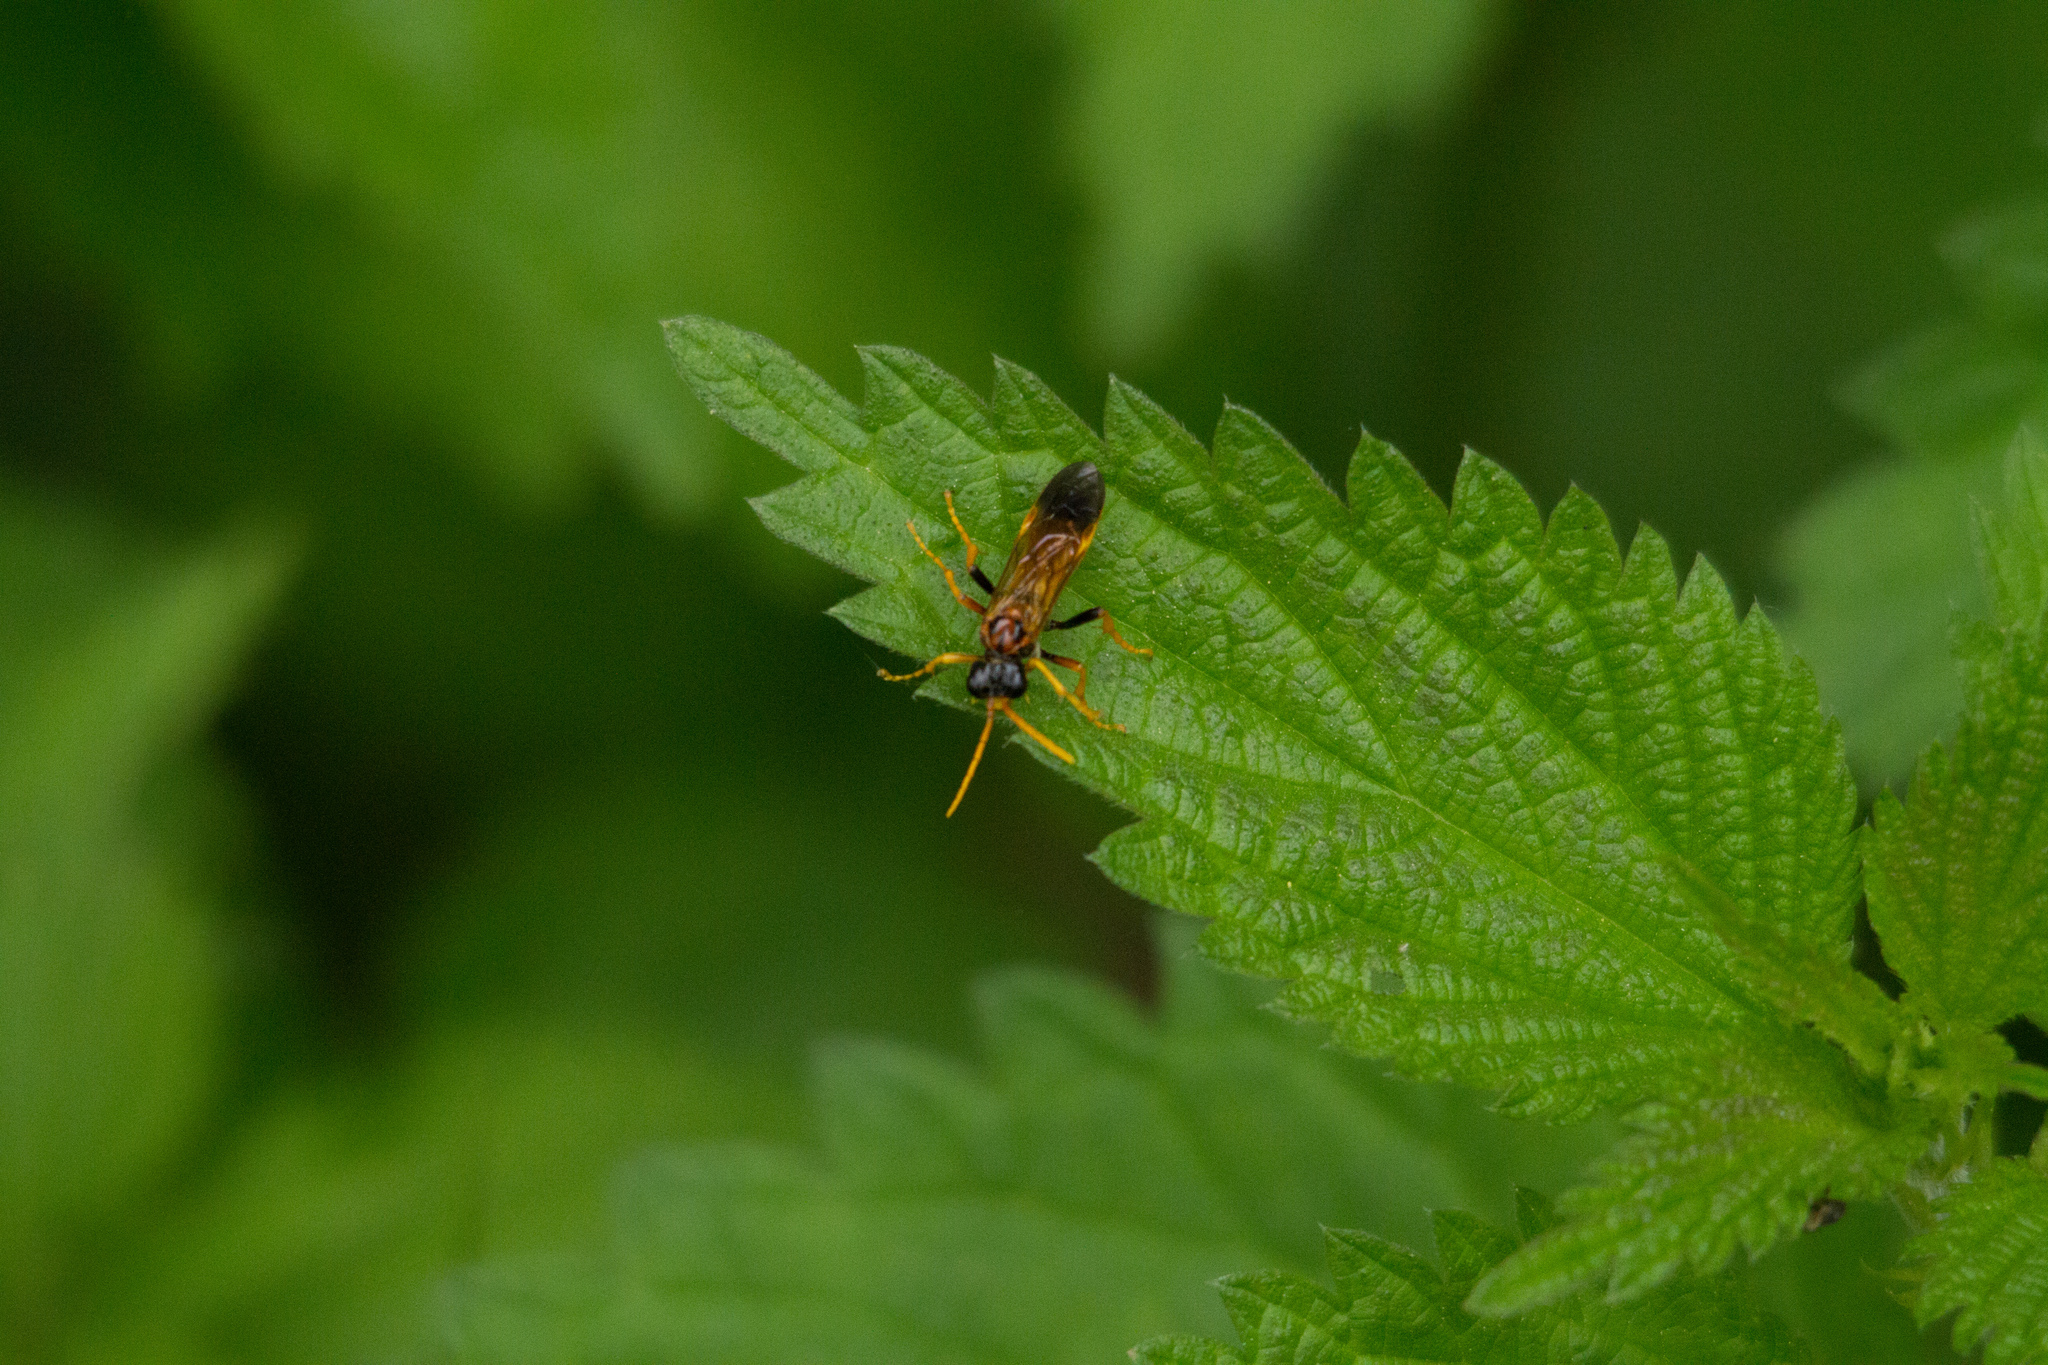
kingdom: Animalia
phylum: Arthropoda
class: Insecta
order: Hymenoptera
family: Tenthredinidae
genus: Tenthredo
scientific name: Tenthredo campestris
